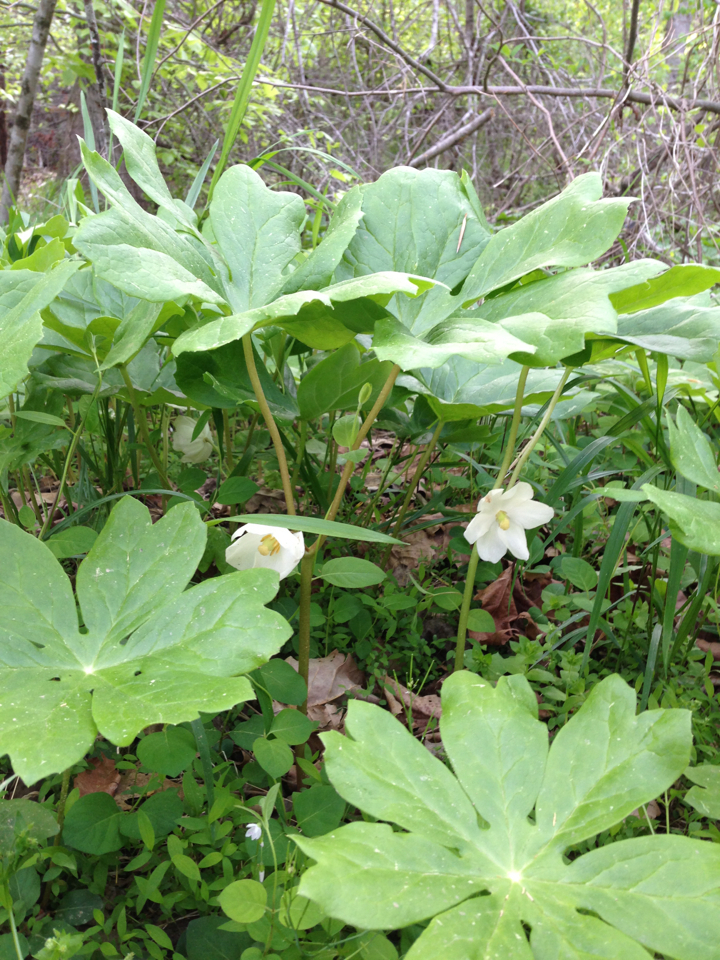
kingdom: Plantae
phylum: Tracheophyta
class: Magnoliopsida
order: Ranunculales
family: Berberidaceae
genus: Podophyllum
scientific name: Podophyllum peltatum
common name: Wild mandrake
